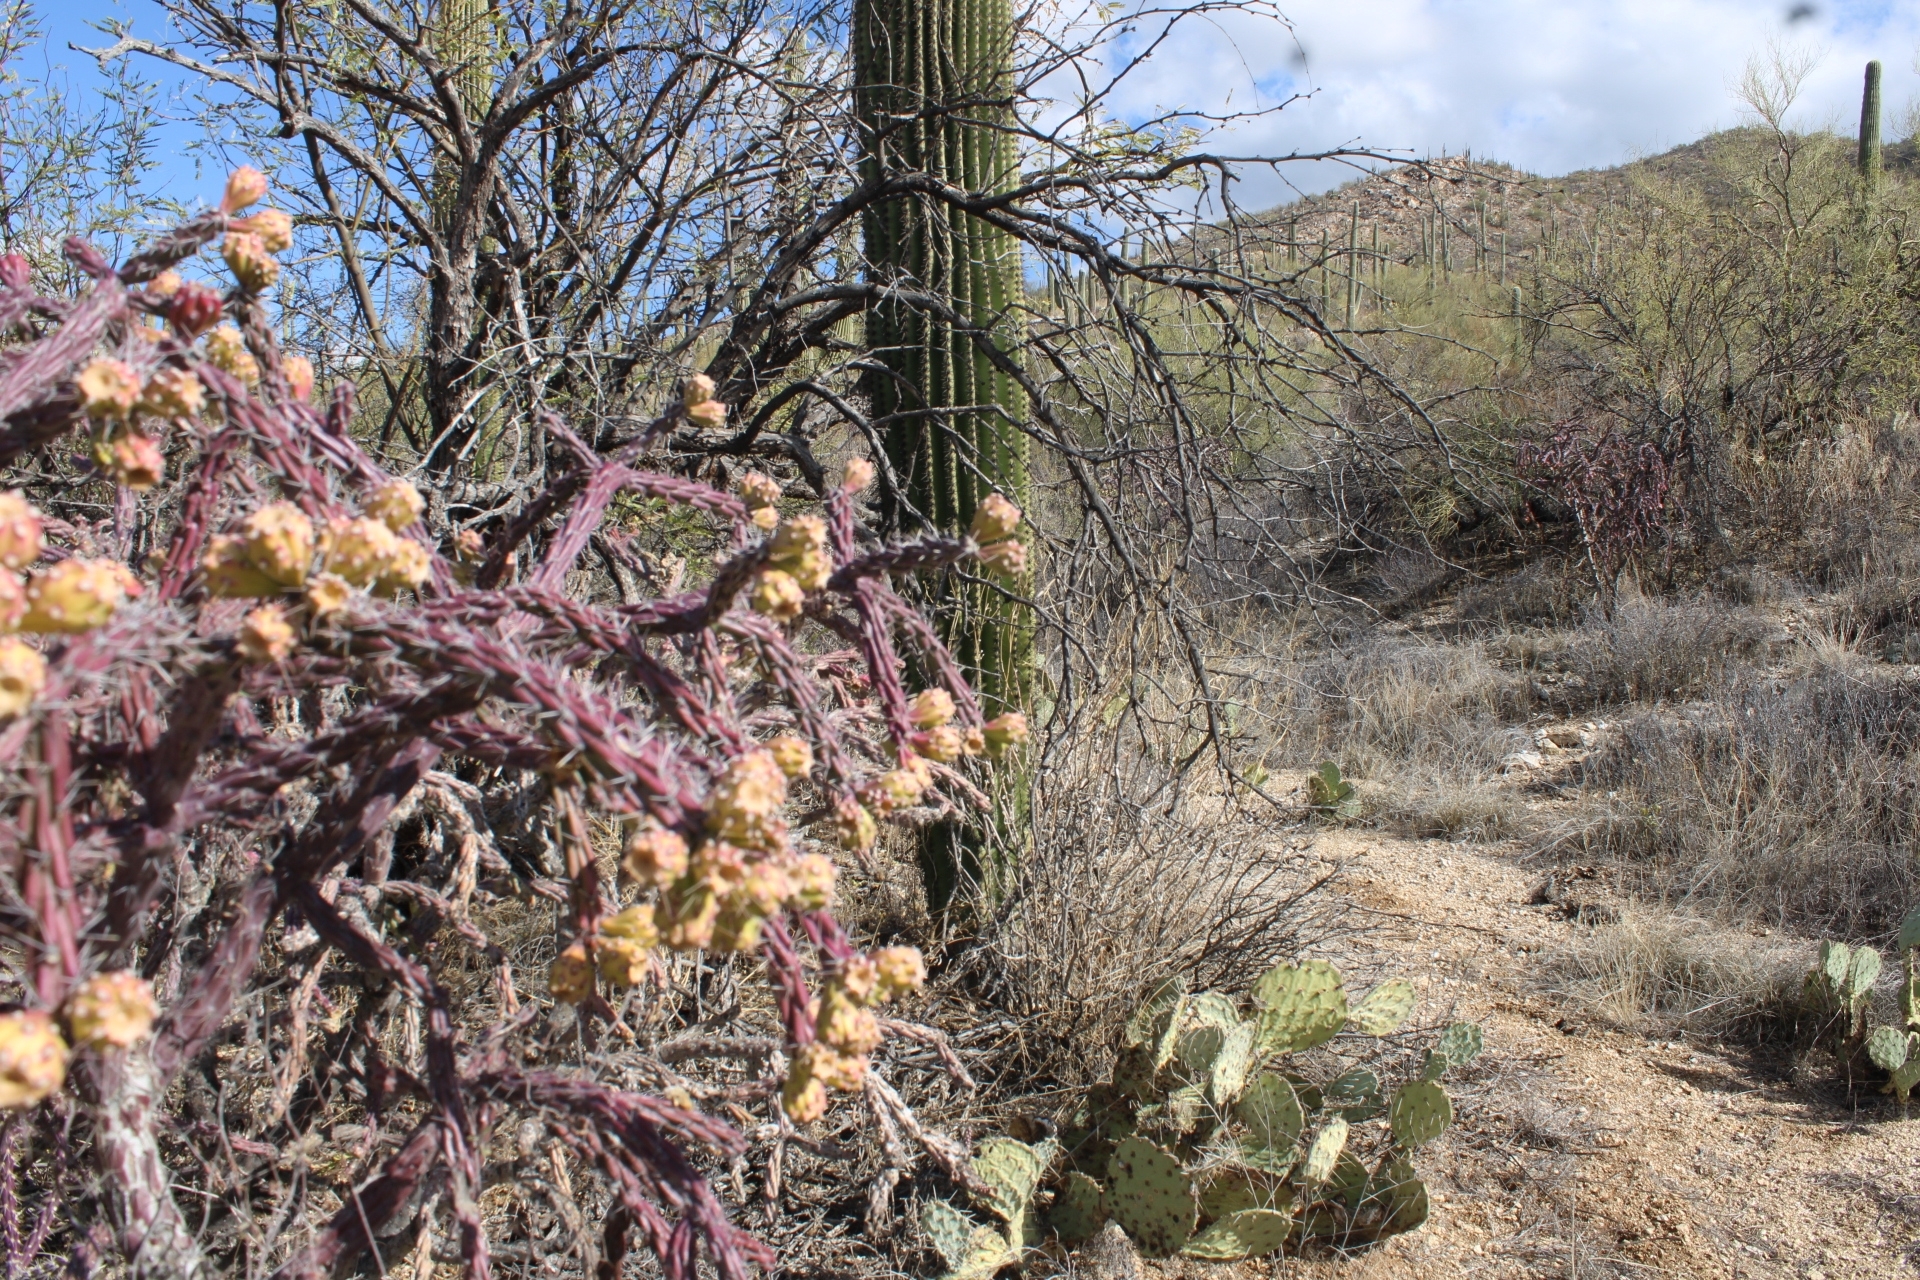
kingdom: Plantae
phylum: Tracheophyta
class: Magnoliopsida
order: Caryophyllales
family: Cactaceae
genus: Cylindropuntia
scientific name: Cylindropuntia thurberi
